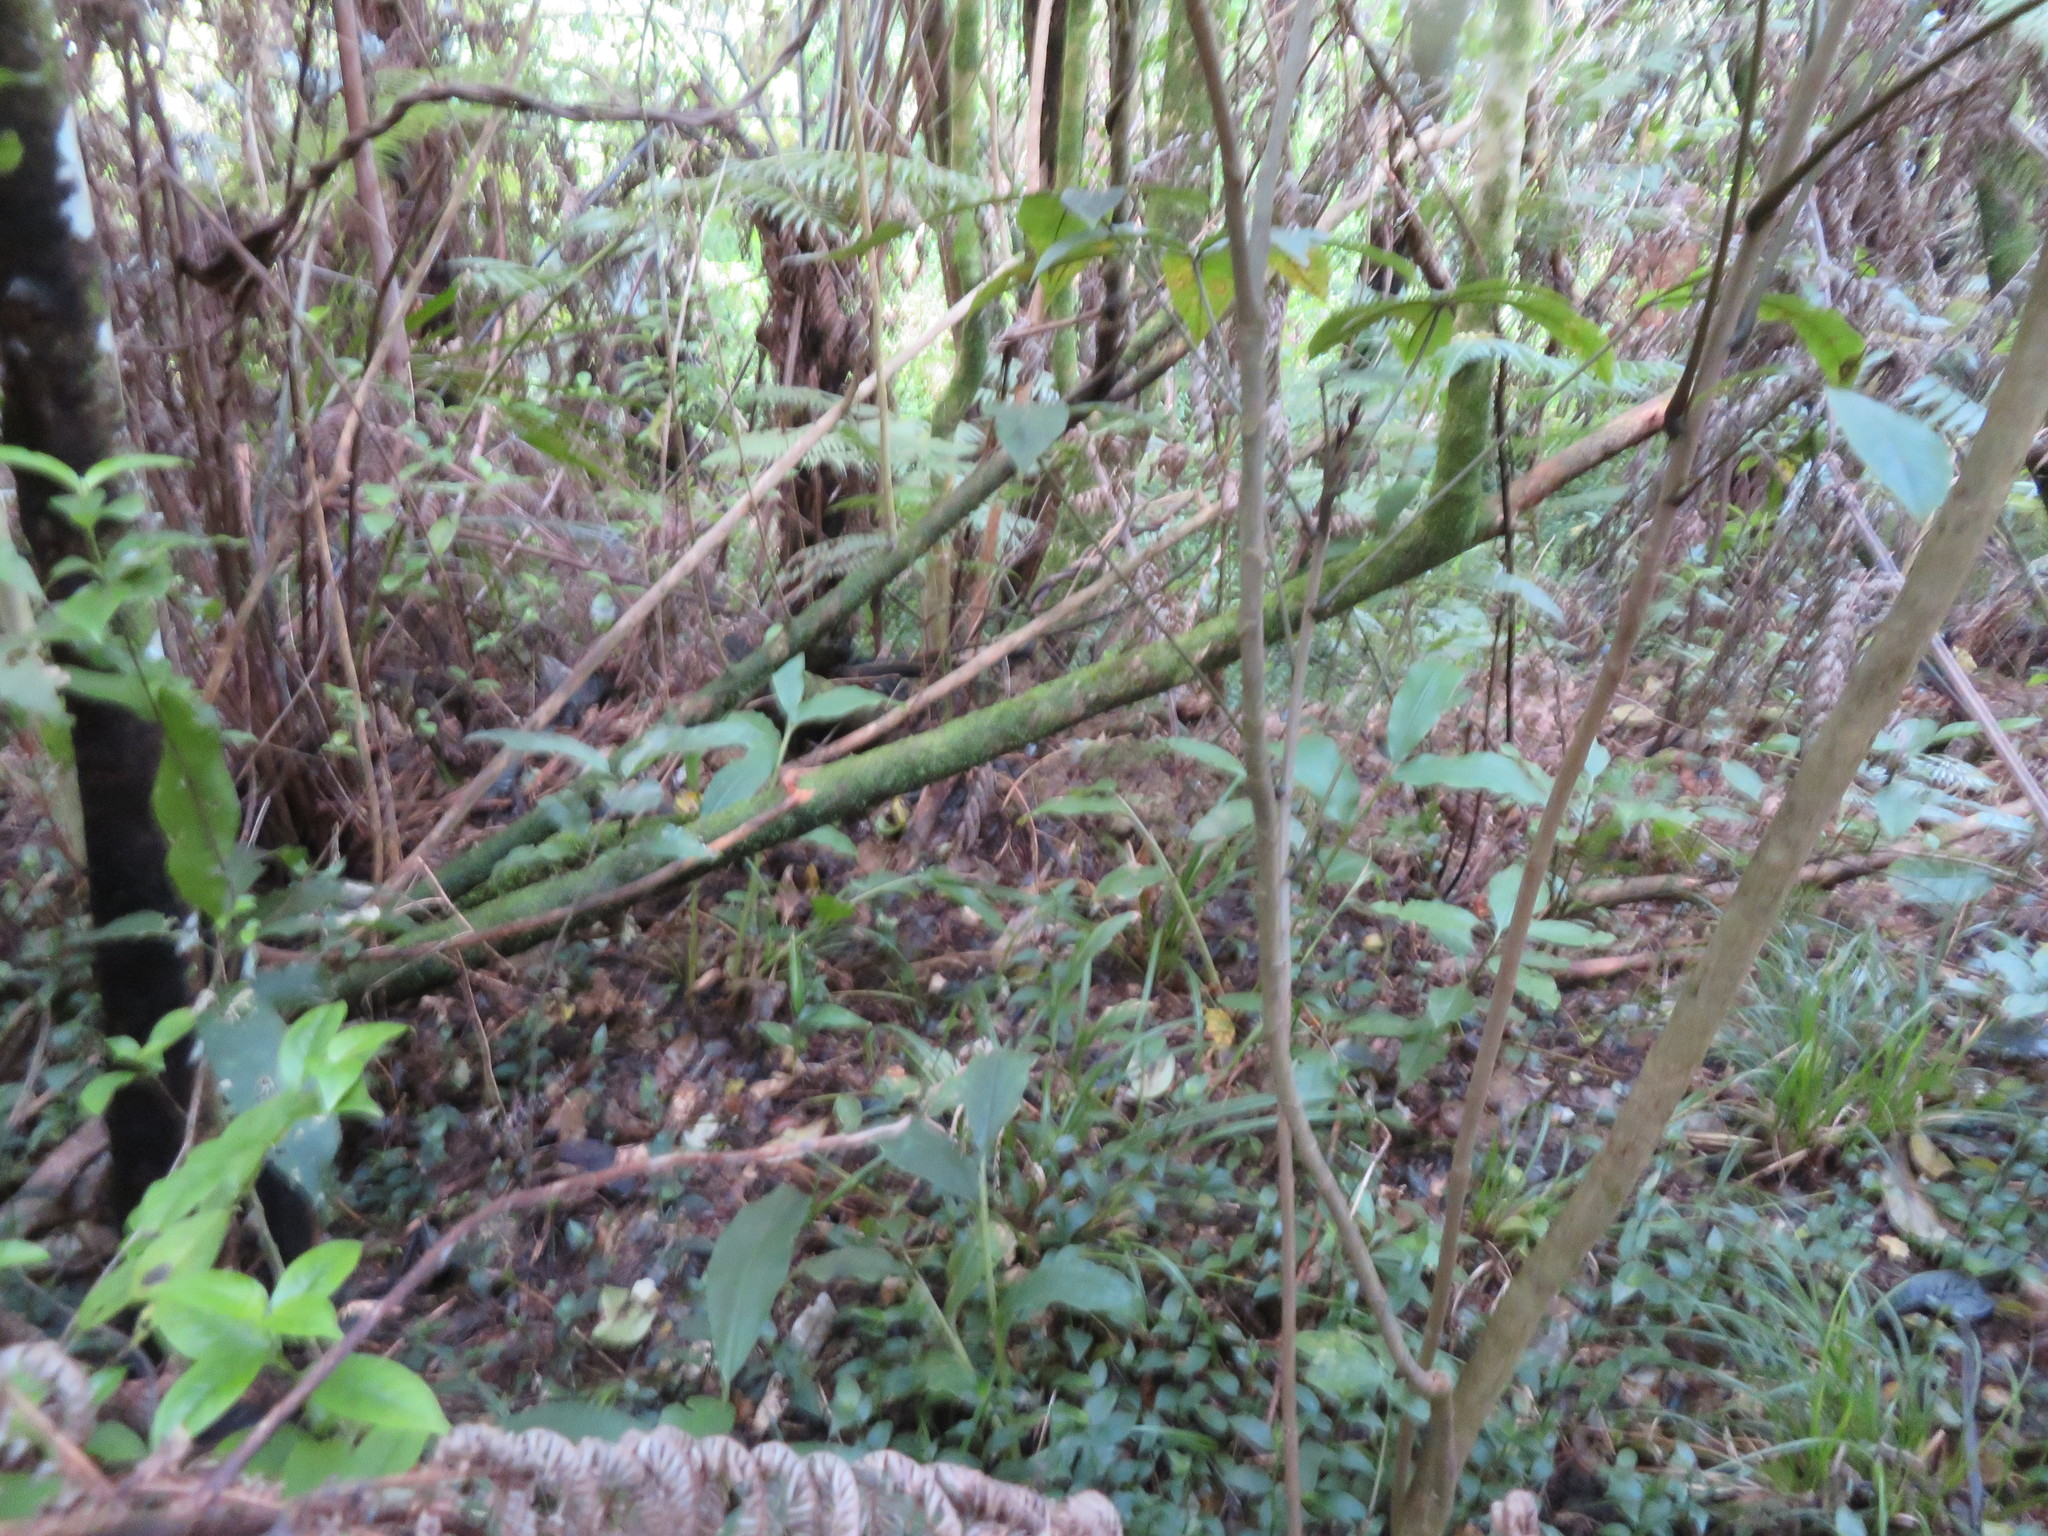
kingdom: Plantae
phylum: Tracheophyta
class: Liliopsida
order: Zingiberales
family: Zingiberaceae
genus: Hedychium
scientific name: Hedychium gardnerianum
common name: Himalayan ginger
